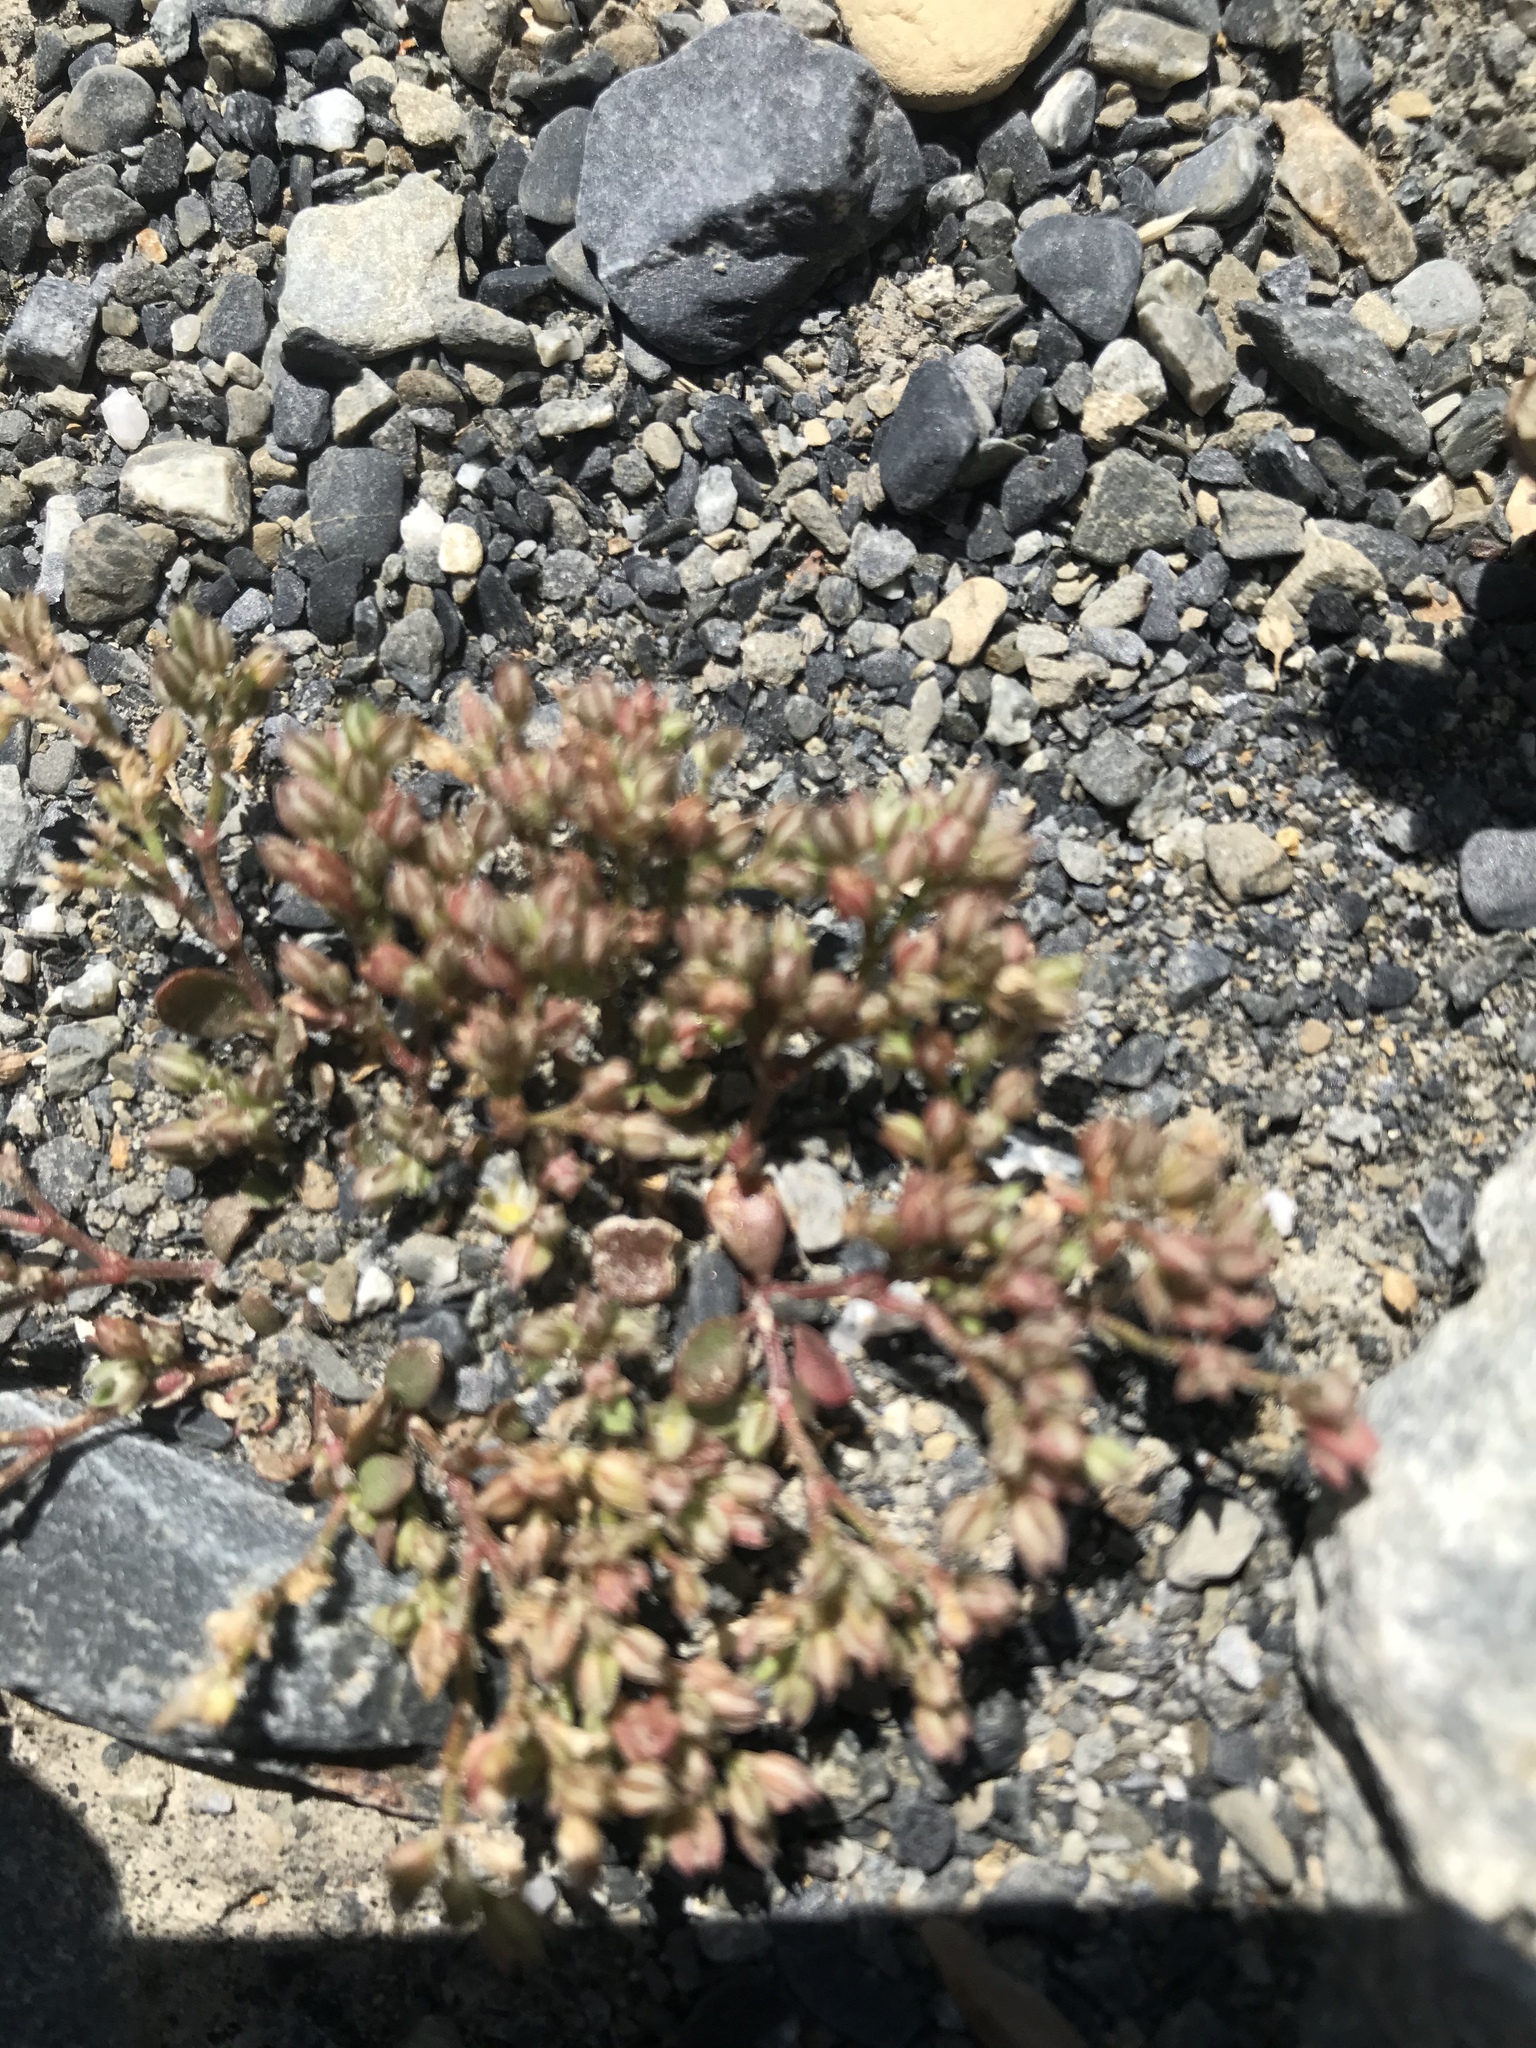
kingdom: Plantae
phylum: Tracheophyta
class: Magnoliopsida
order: Caryophyllales
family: Caryophyllaceae
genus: Polycarpon
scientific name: Polycarpon tetraphyllum
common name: Four-leaved all-seed
